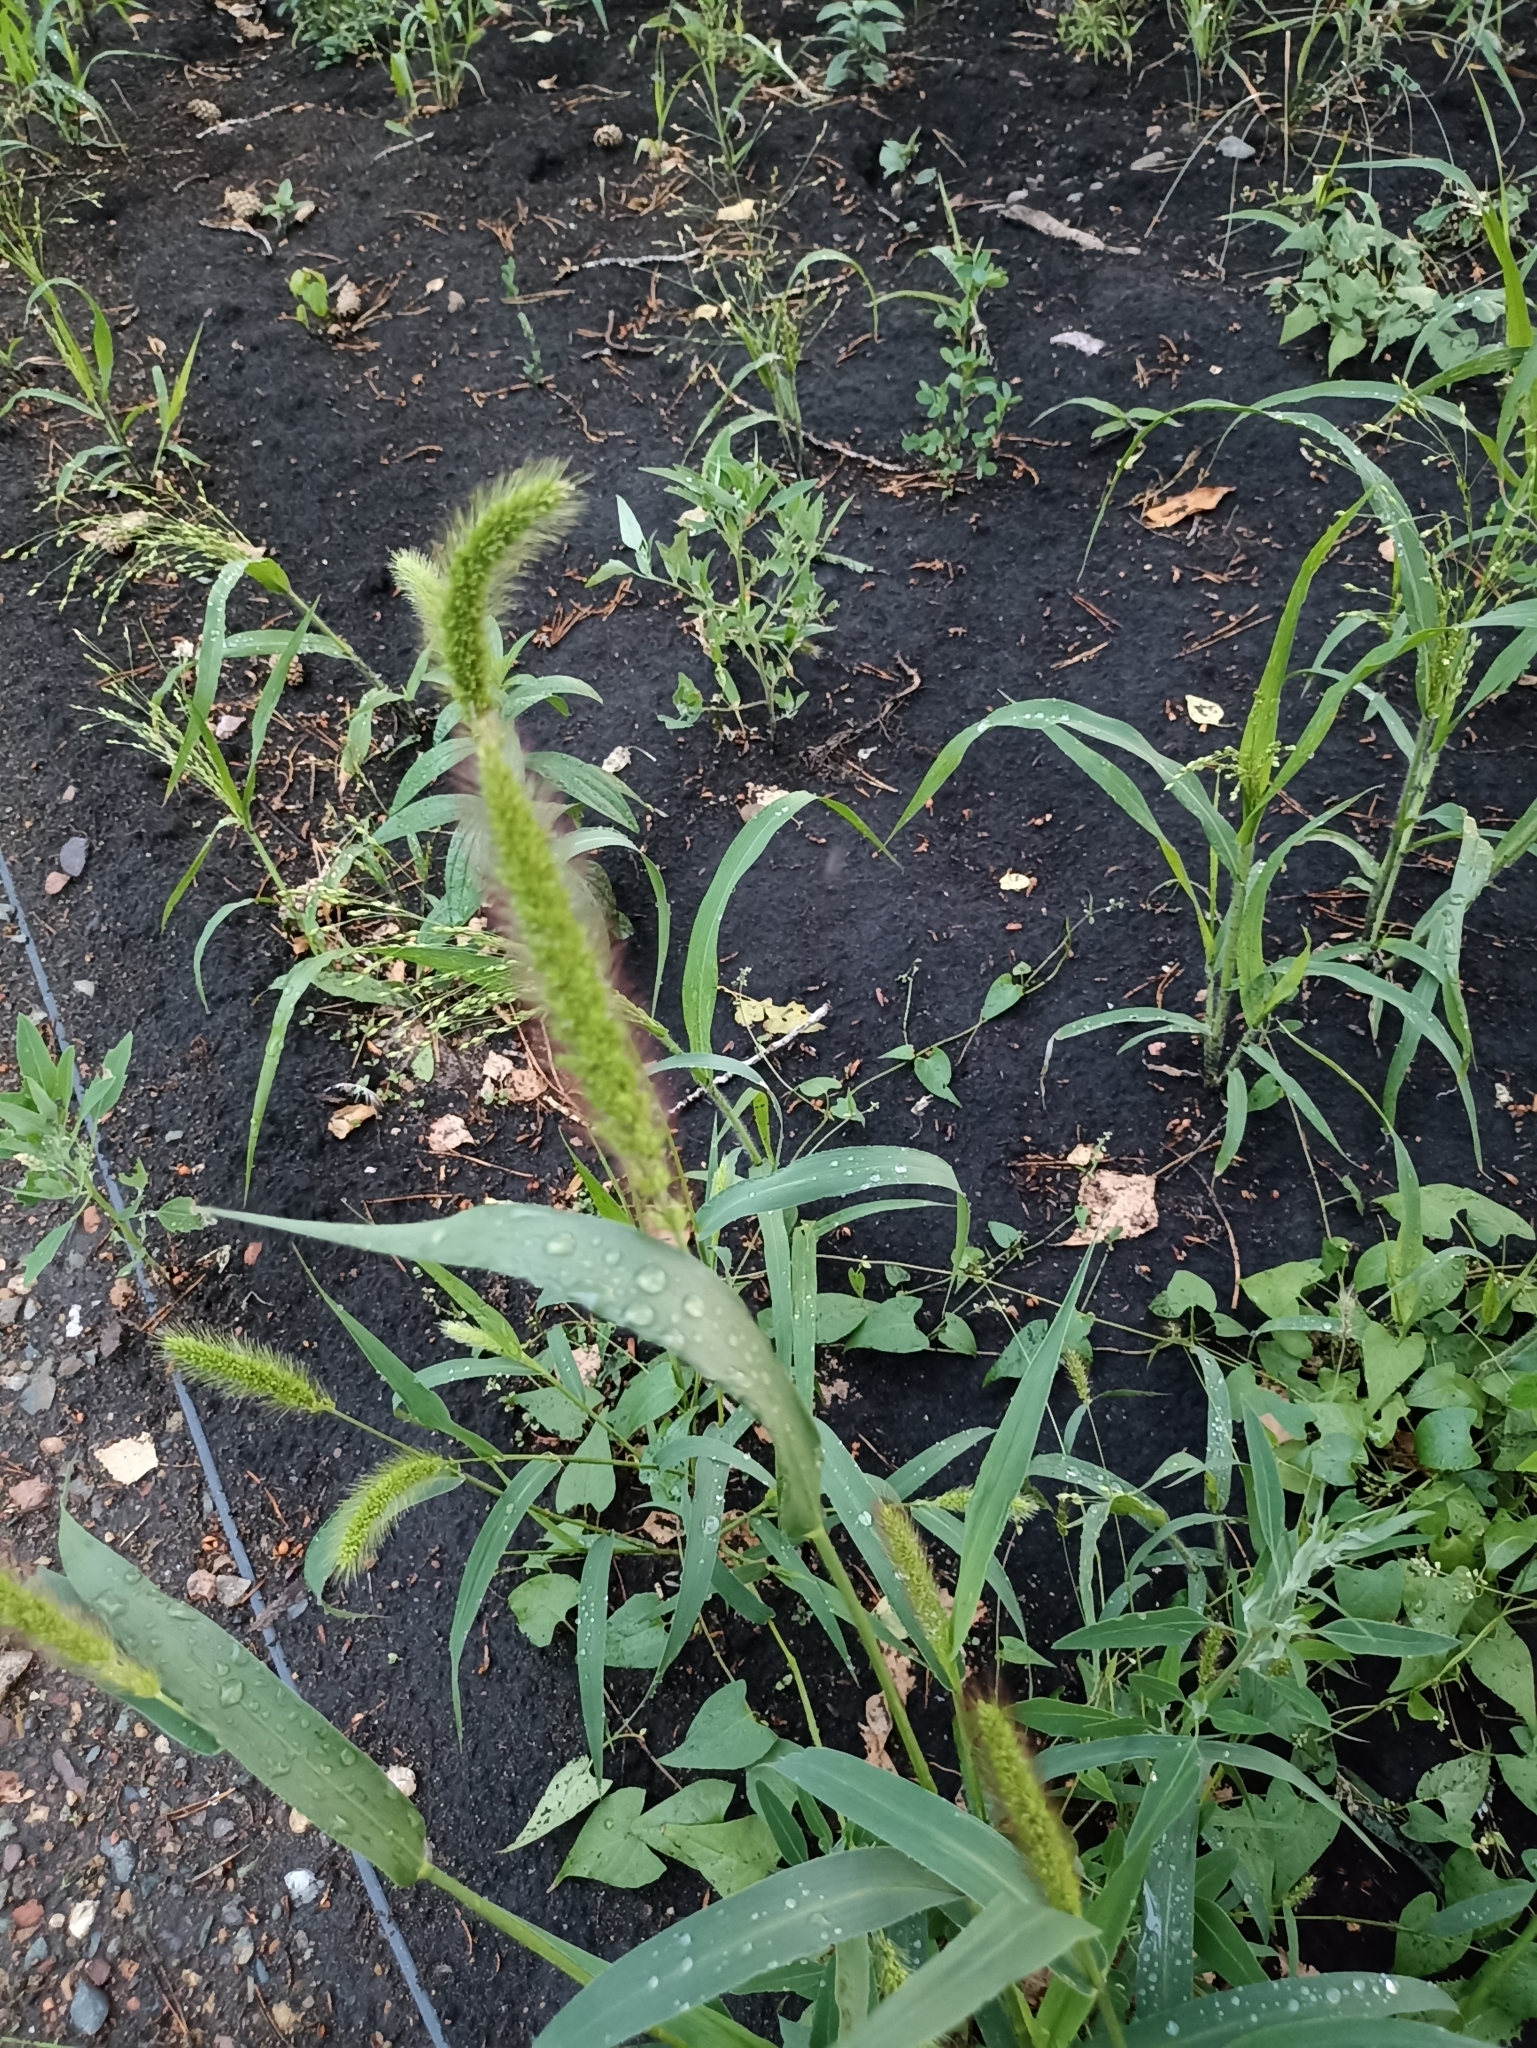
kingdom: Plantae
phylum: Tracheophyta
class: Liliopsida
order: Poales
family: Poaceae
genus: Setaria
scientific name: Setaria viridis
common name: Green bristlegrass
